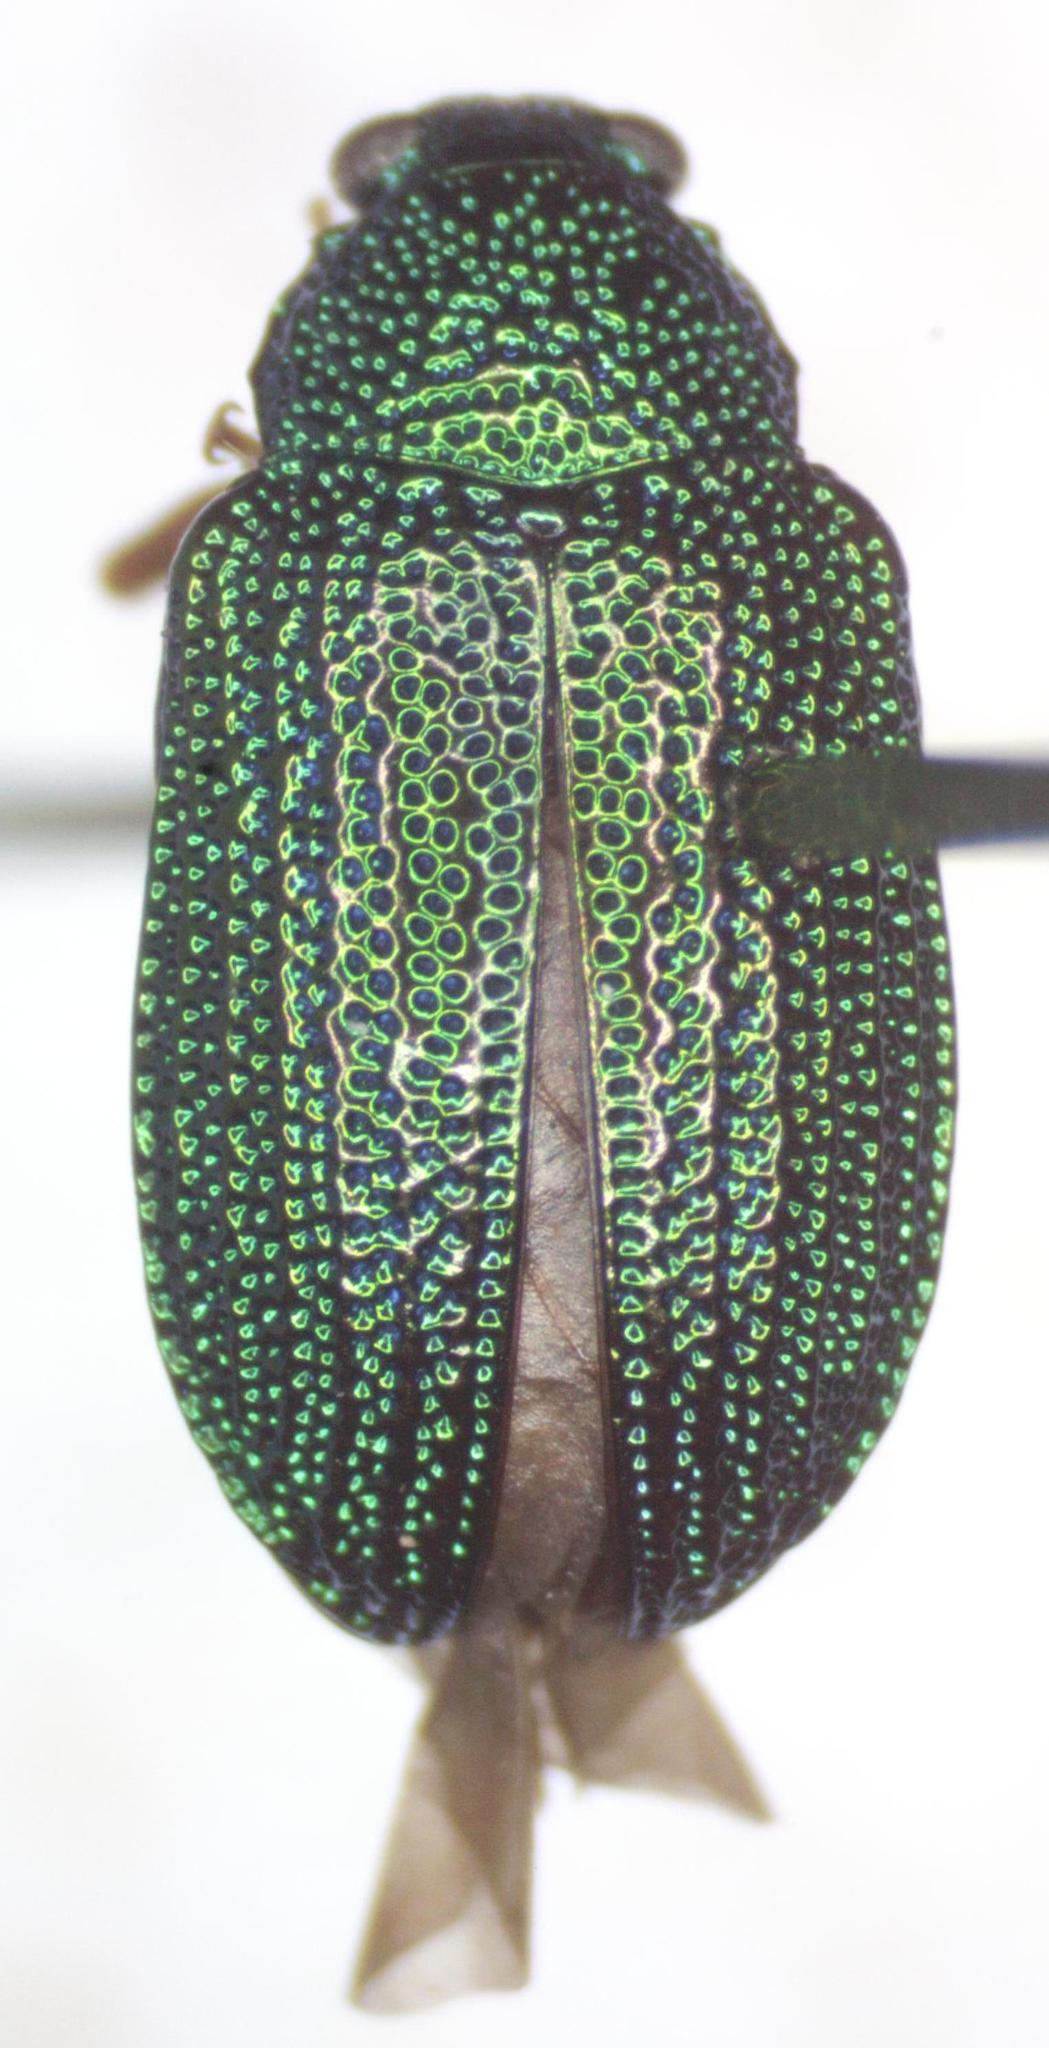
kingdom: Animalia
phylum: Arthropoda
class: Insecta
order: Coleoptera
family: Chrysomelidae
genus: Colaspis
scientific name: Colaspis
